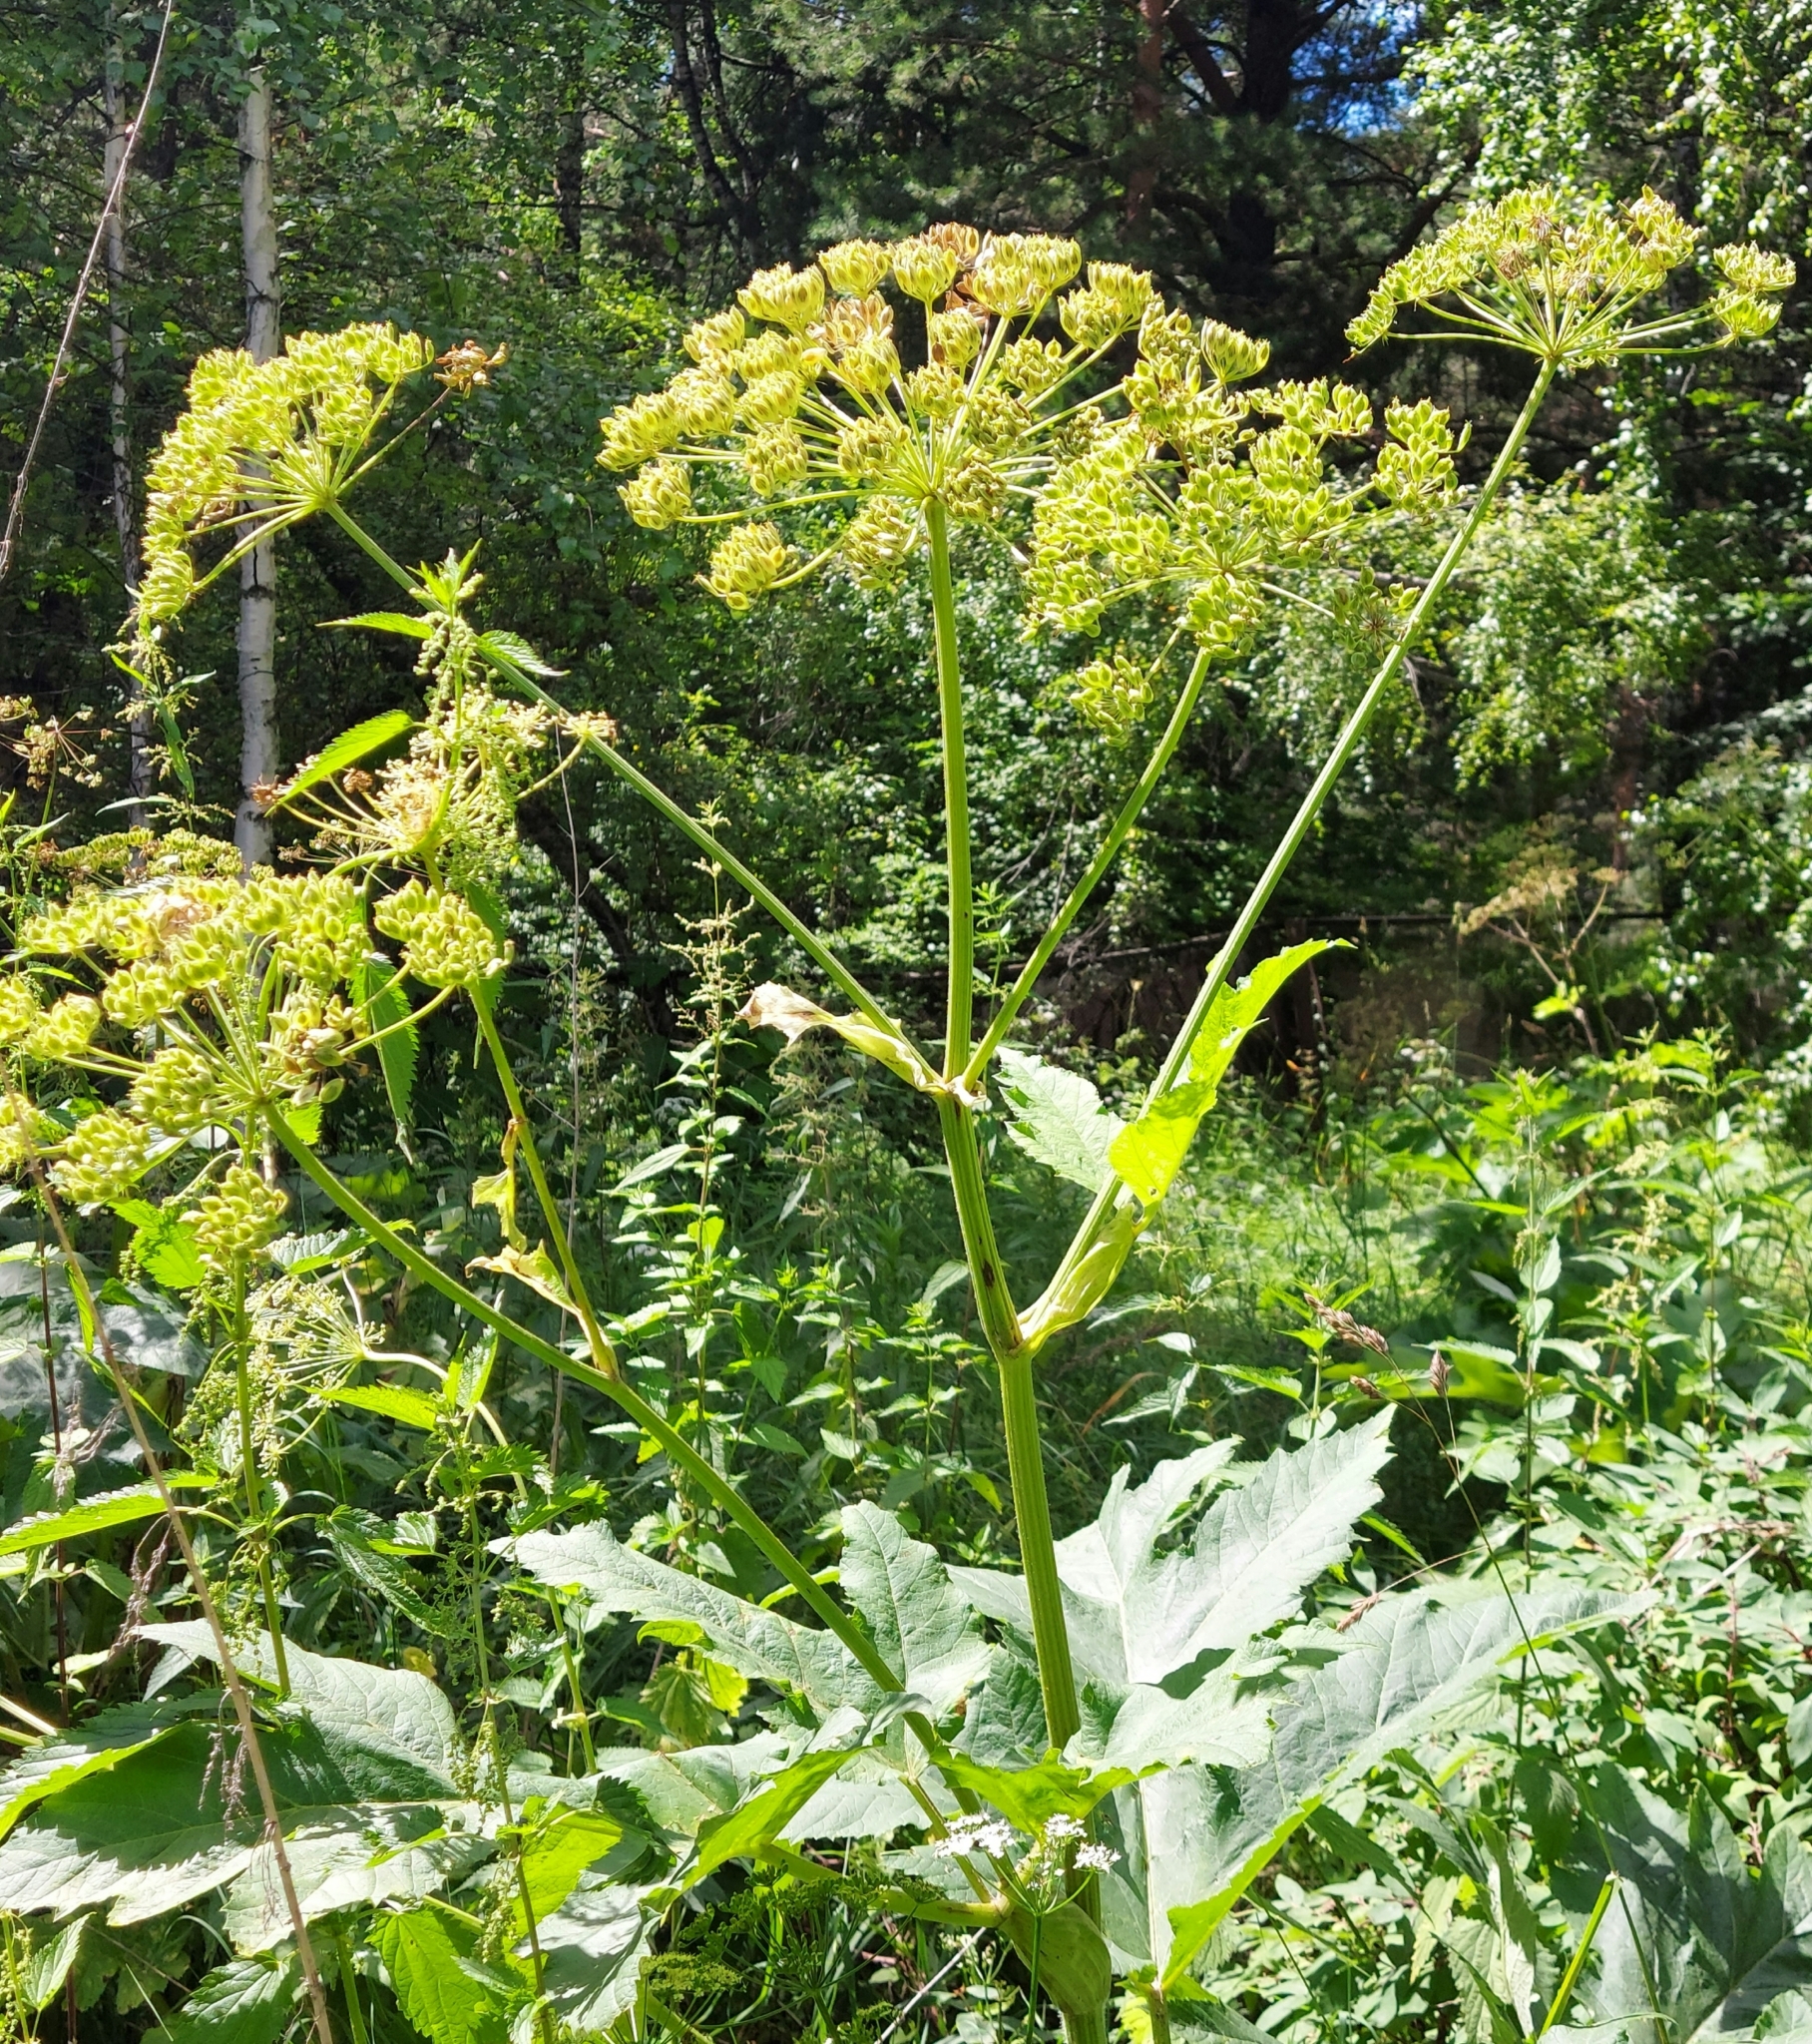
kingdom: Plantae
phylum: Tracheophyta
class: Magnoliopsida
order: Apiales
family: Apiaceae
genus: Heracleum
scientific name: Heracleum sphondylium
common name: Hogweed
